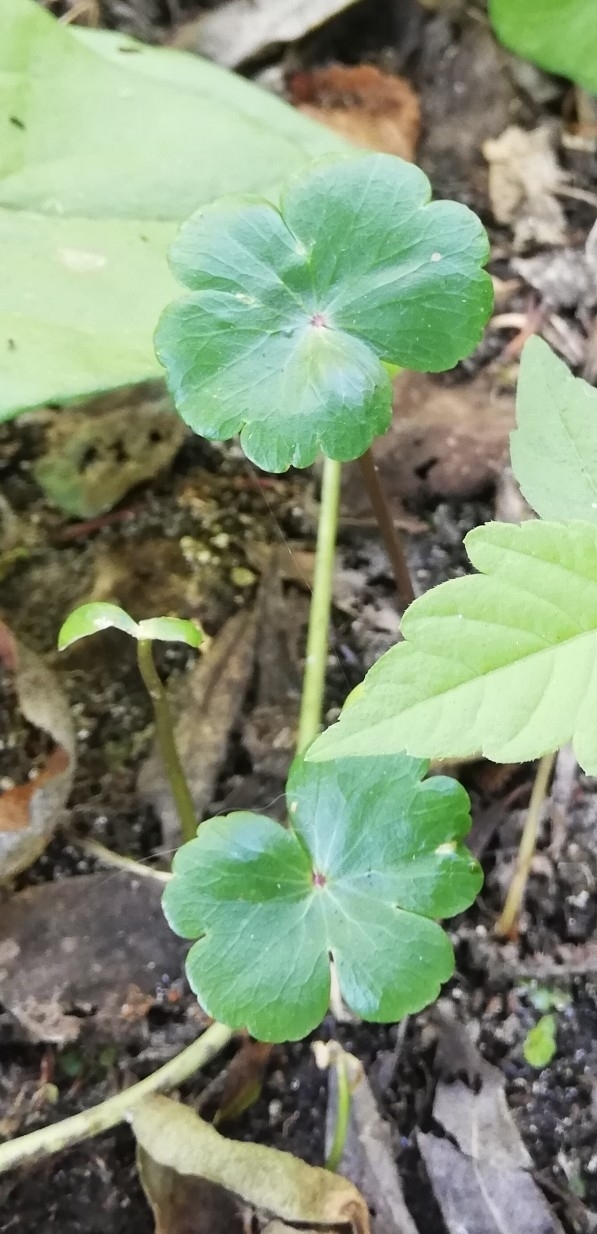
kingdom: Plantae
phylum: Tracheophyta
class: Magnoliopsida
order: Apiales
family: Araliaceae
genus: Hydrocotyle
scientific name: Hydrocotyle ranunculoides
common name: Floating pennywort
